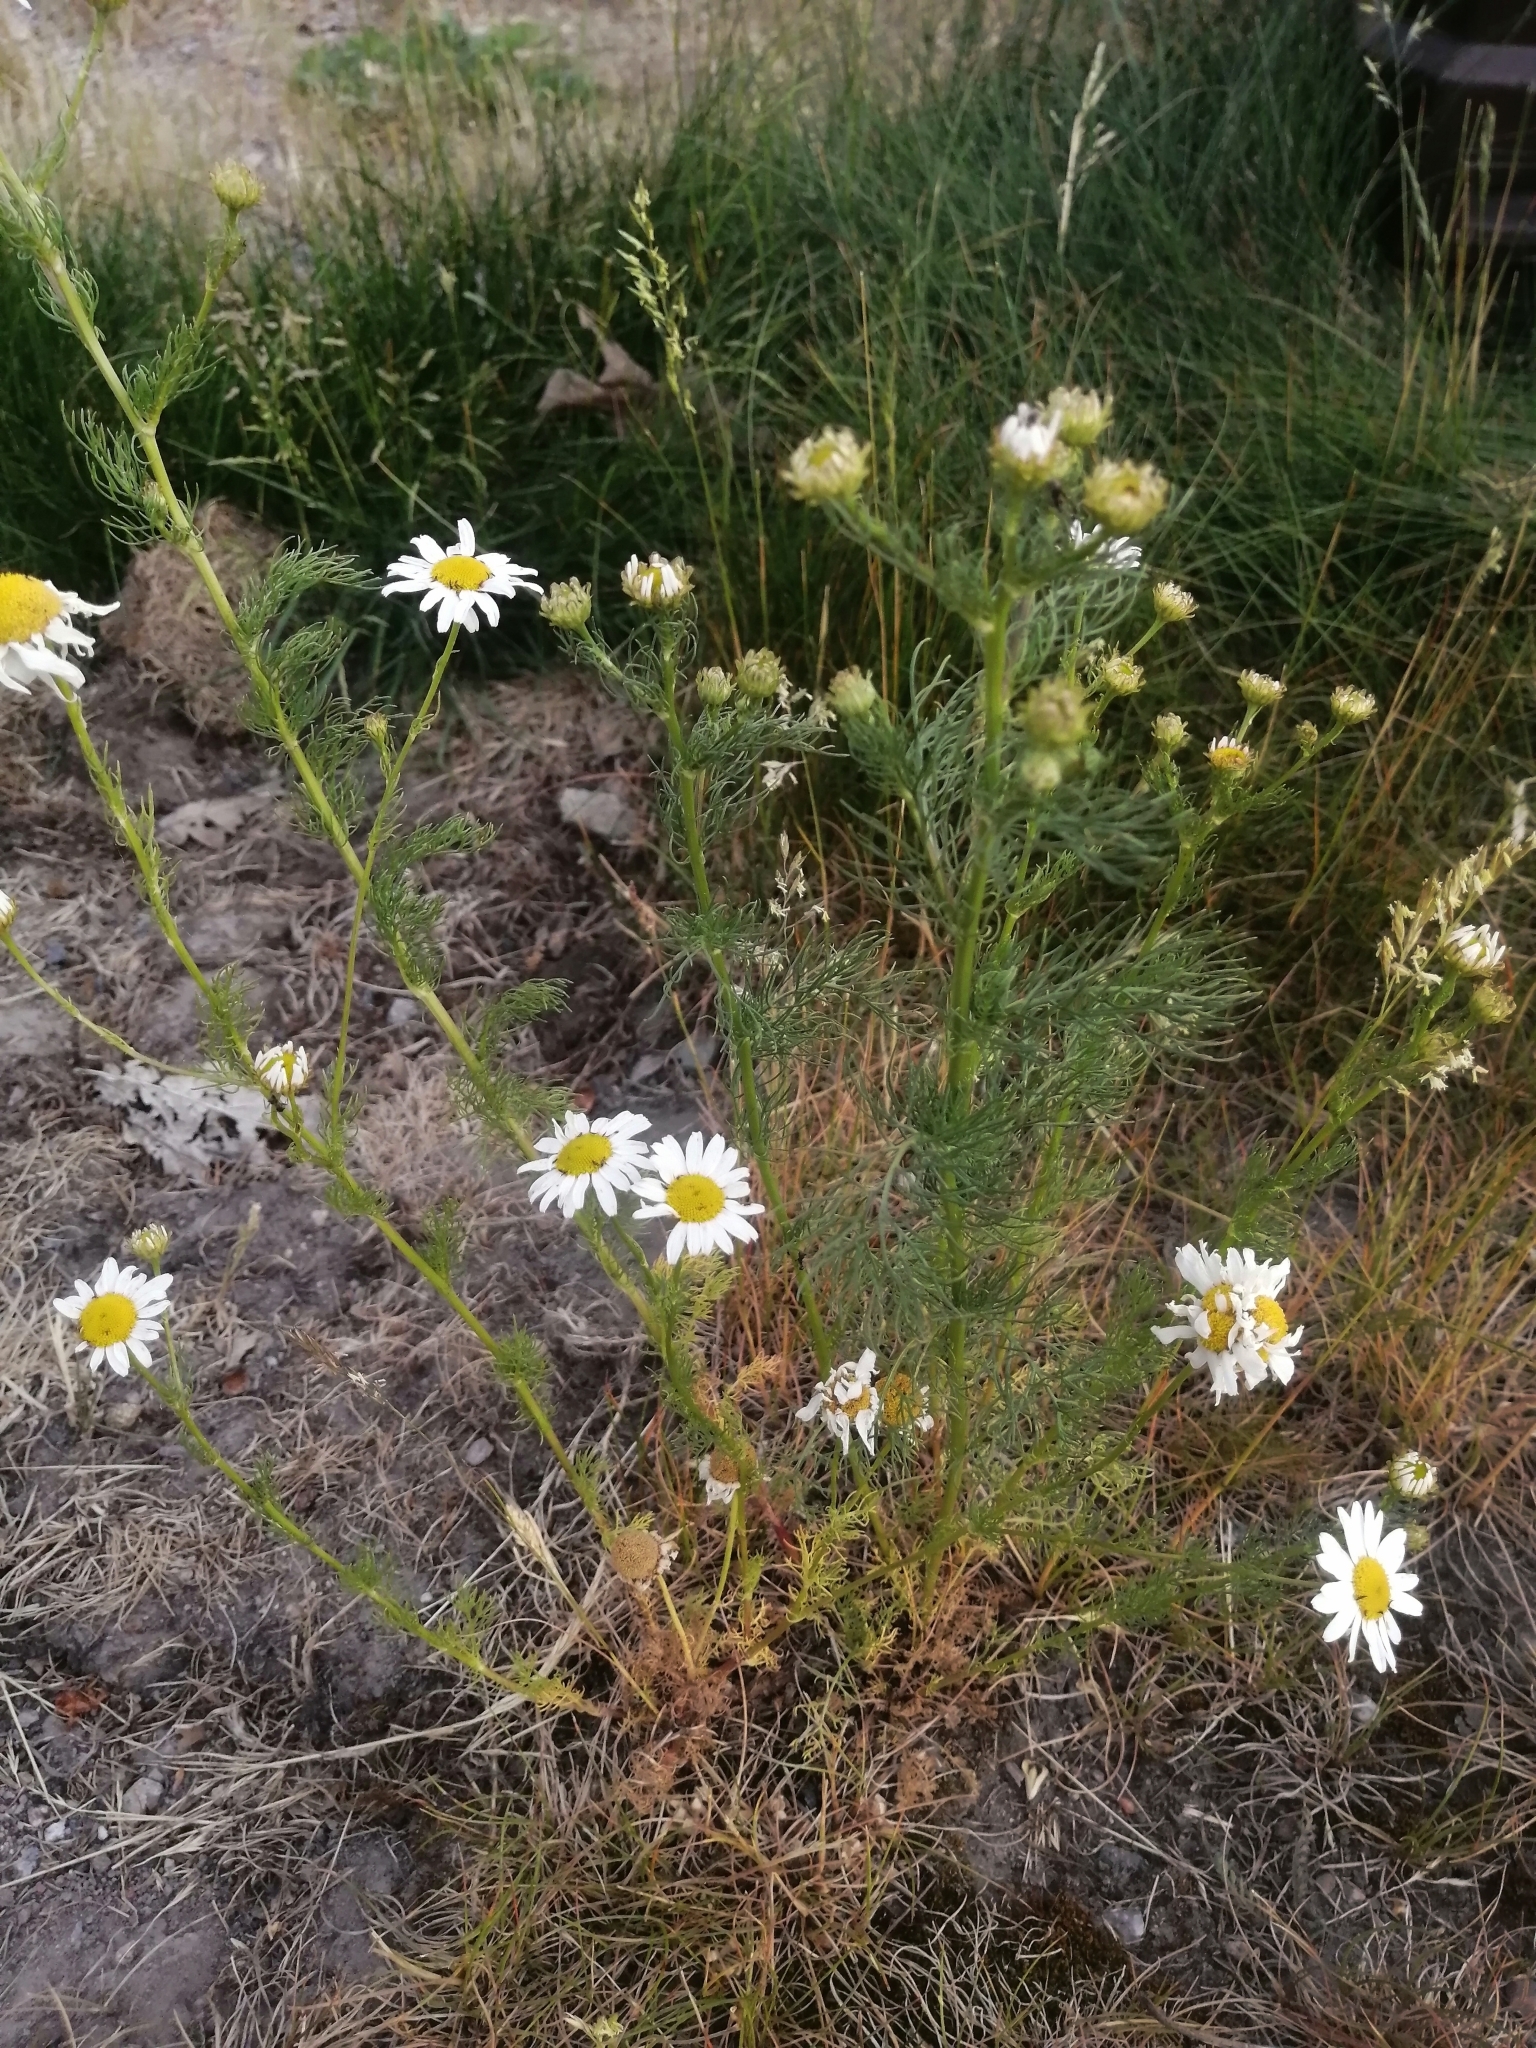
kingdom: Plantae
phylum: Tracheophyta
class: Magnoliopsida
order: Asterales
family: Asteraceae
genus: Tripleurospermum
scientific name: Tripleurospermum inodorum
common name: Scentless mayweed
